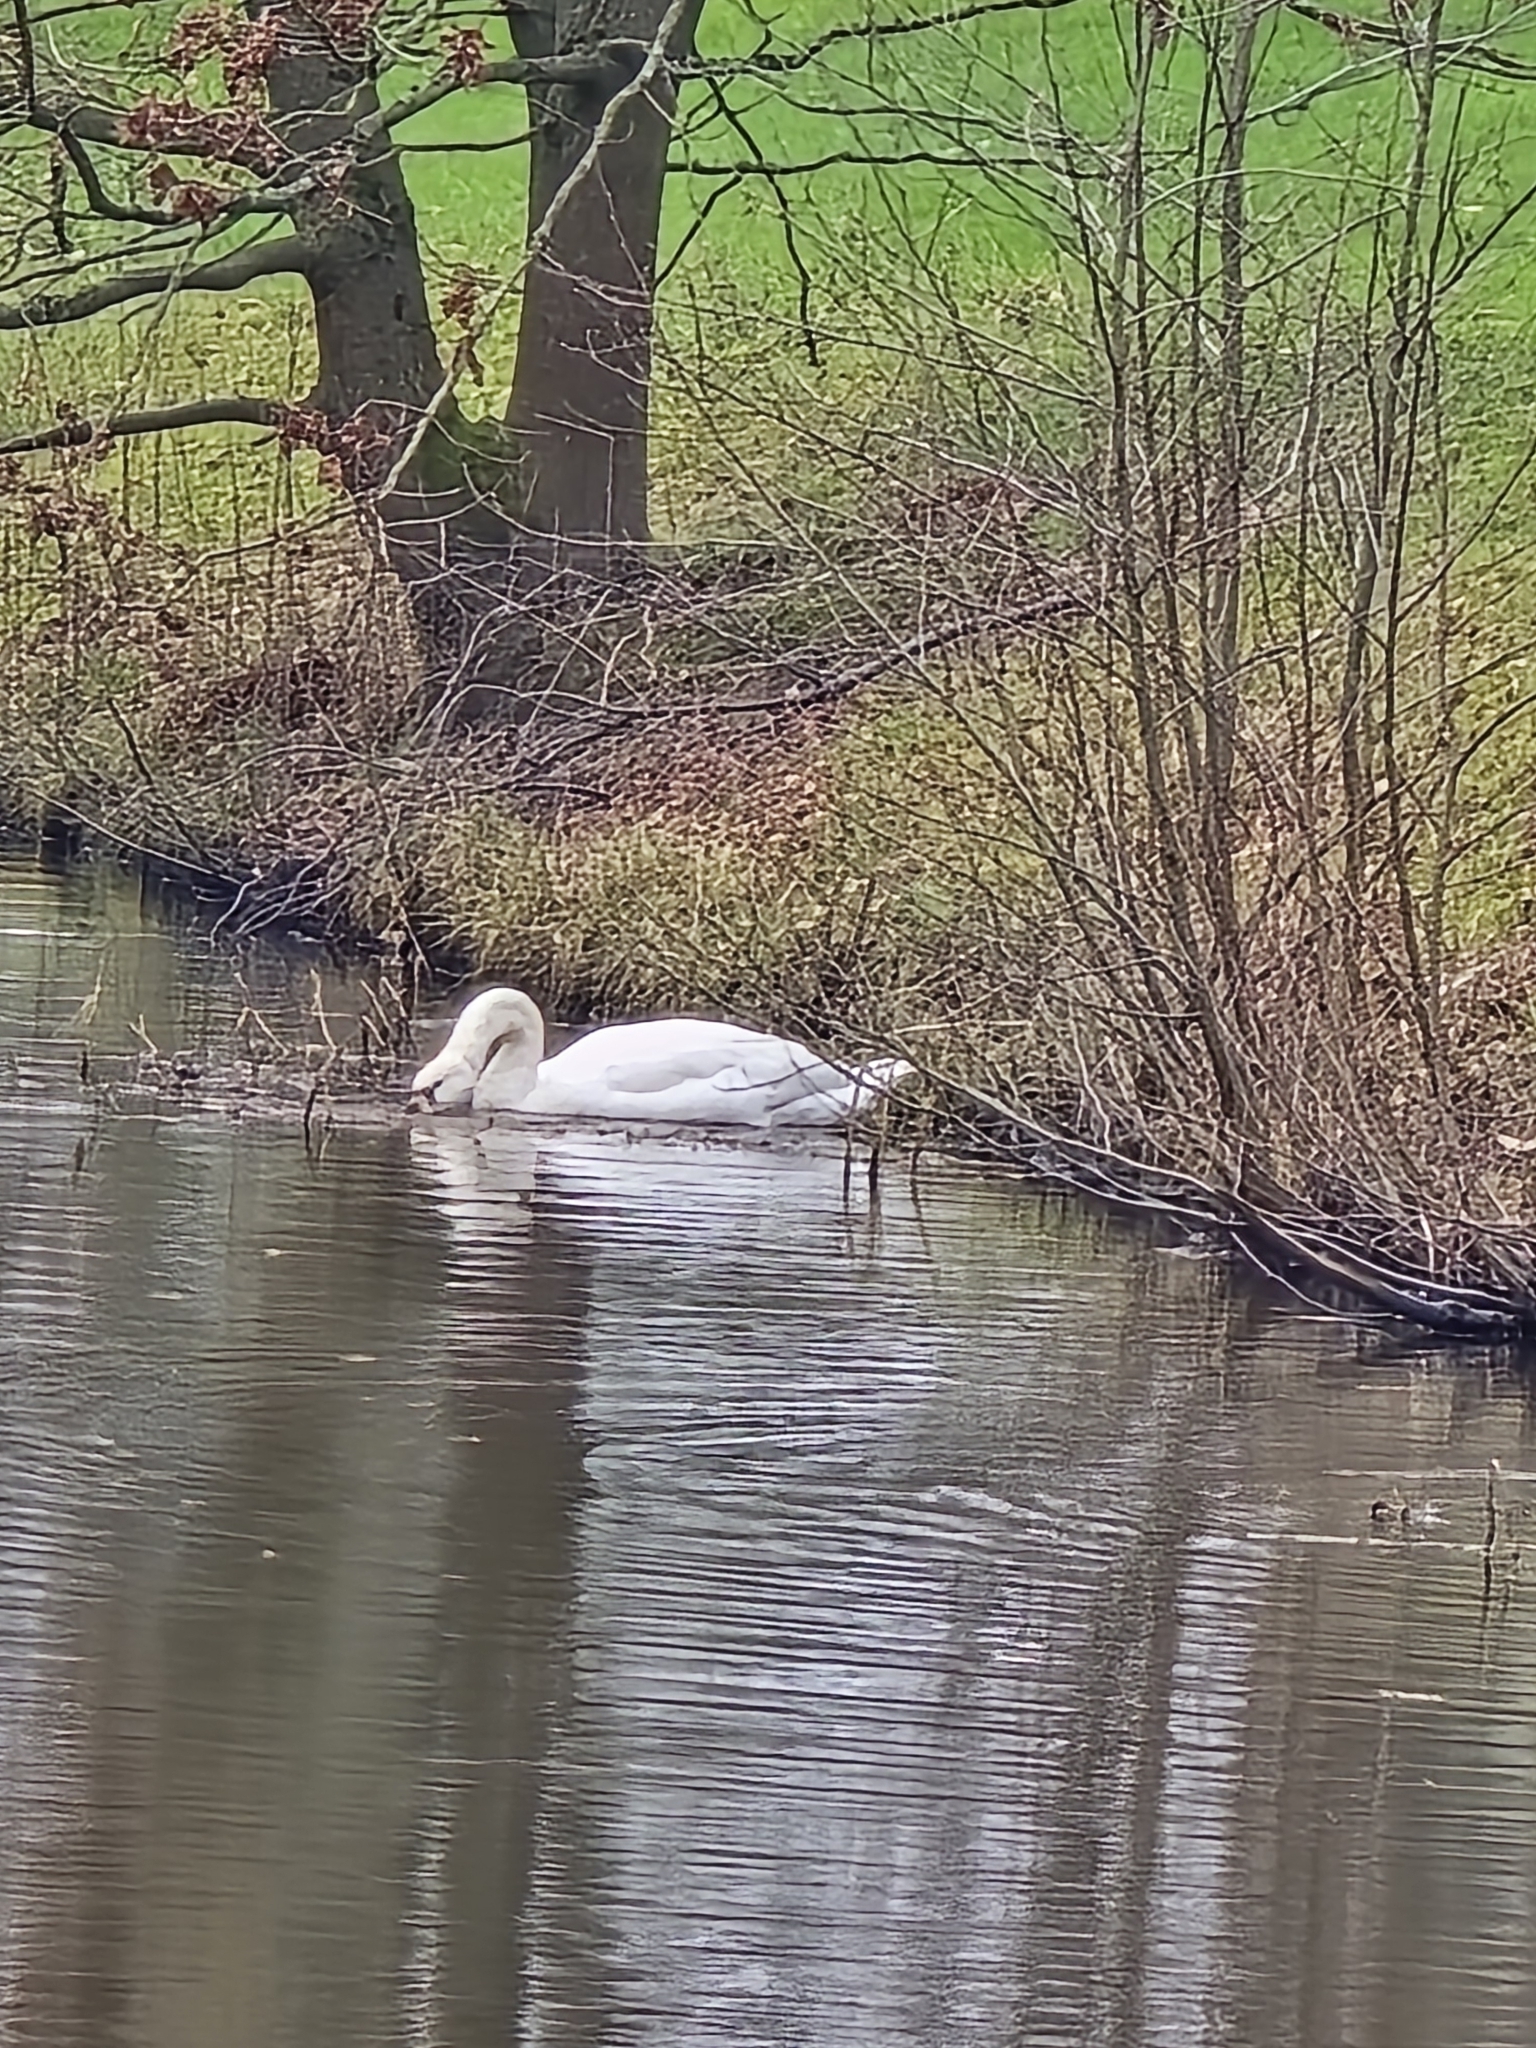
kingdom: Animalia
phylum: Chordata
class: Aves
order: Anseriformes
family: Anatidae
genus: Cygnus
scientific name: Cygnus olor
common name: Mute swan
